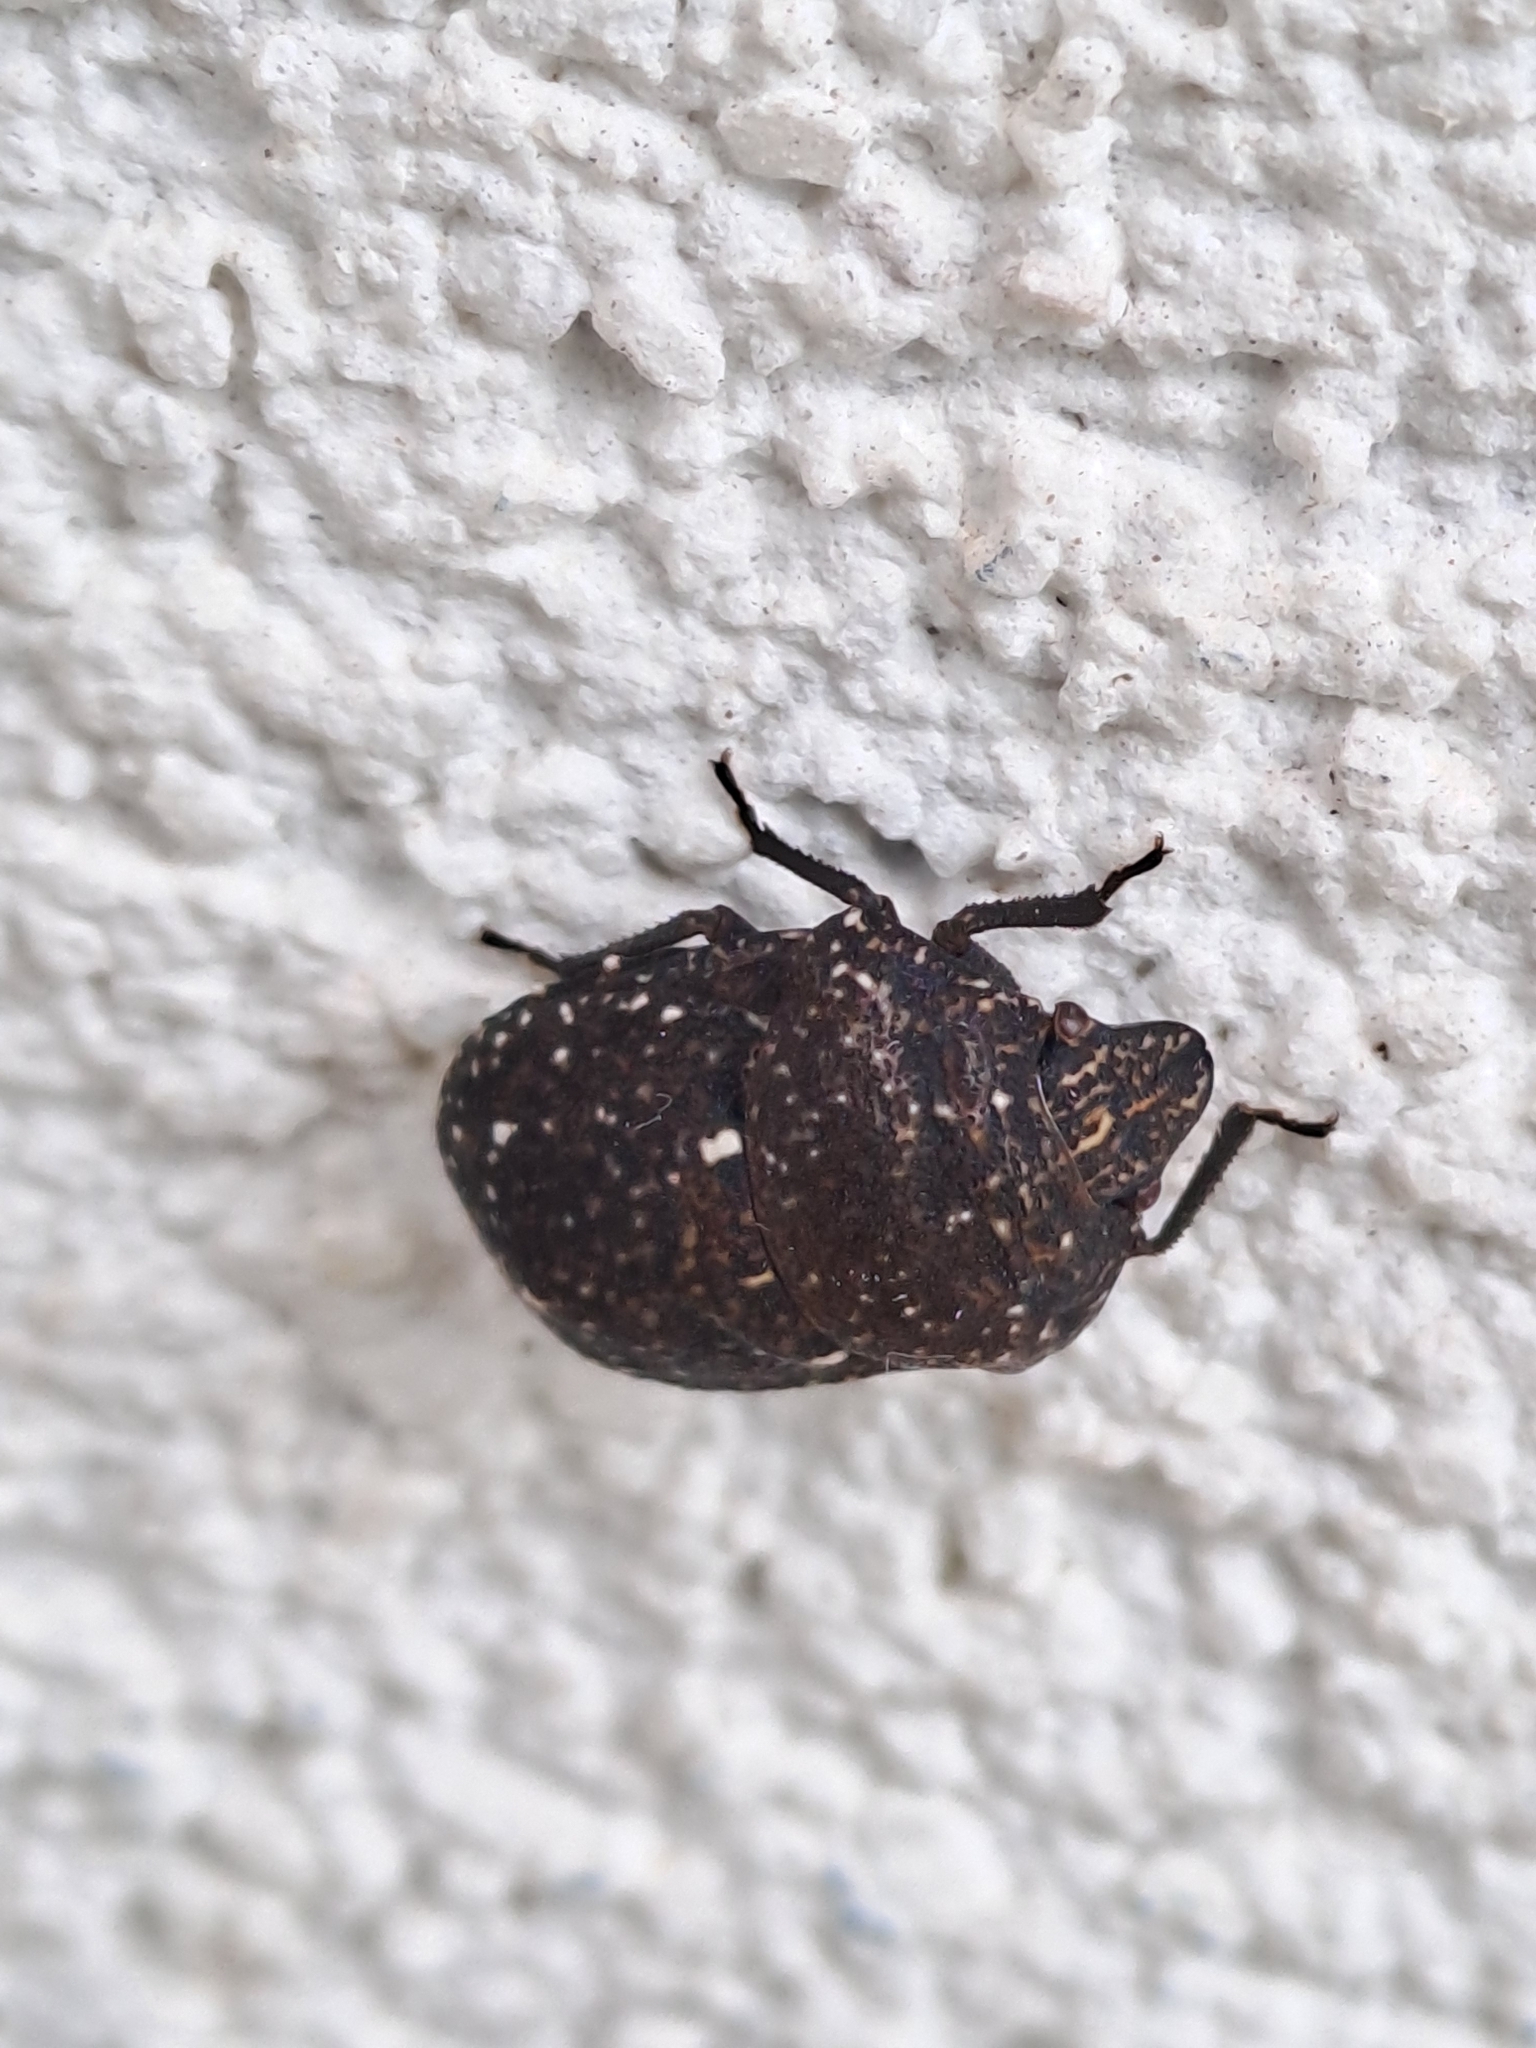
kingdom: Animalia
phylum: Arthropoda
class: Insecta
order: Hemiptera
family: Scutelleridae
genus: Psacasta
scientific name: Psacasta exanthematica
